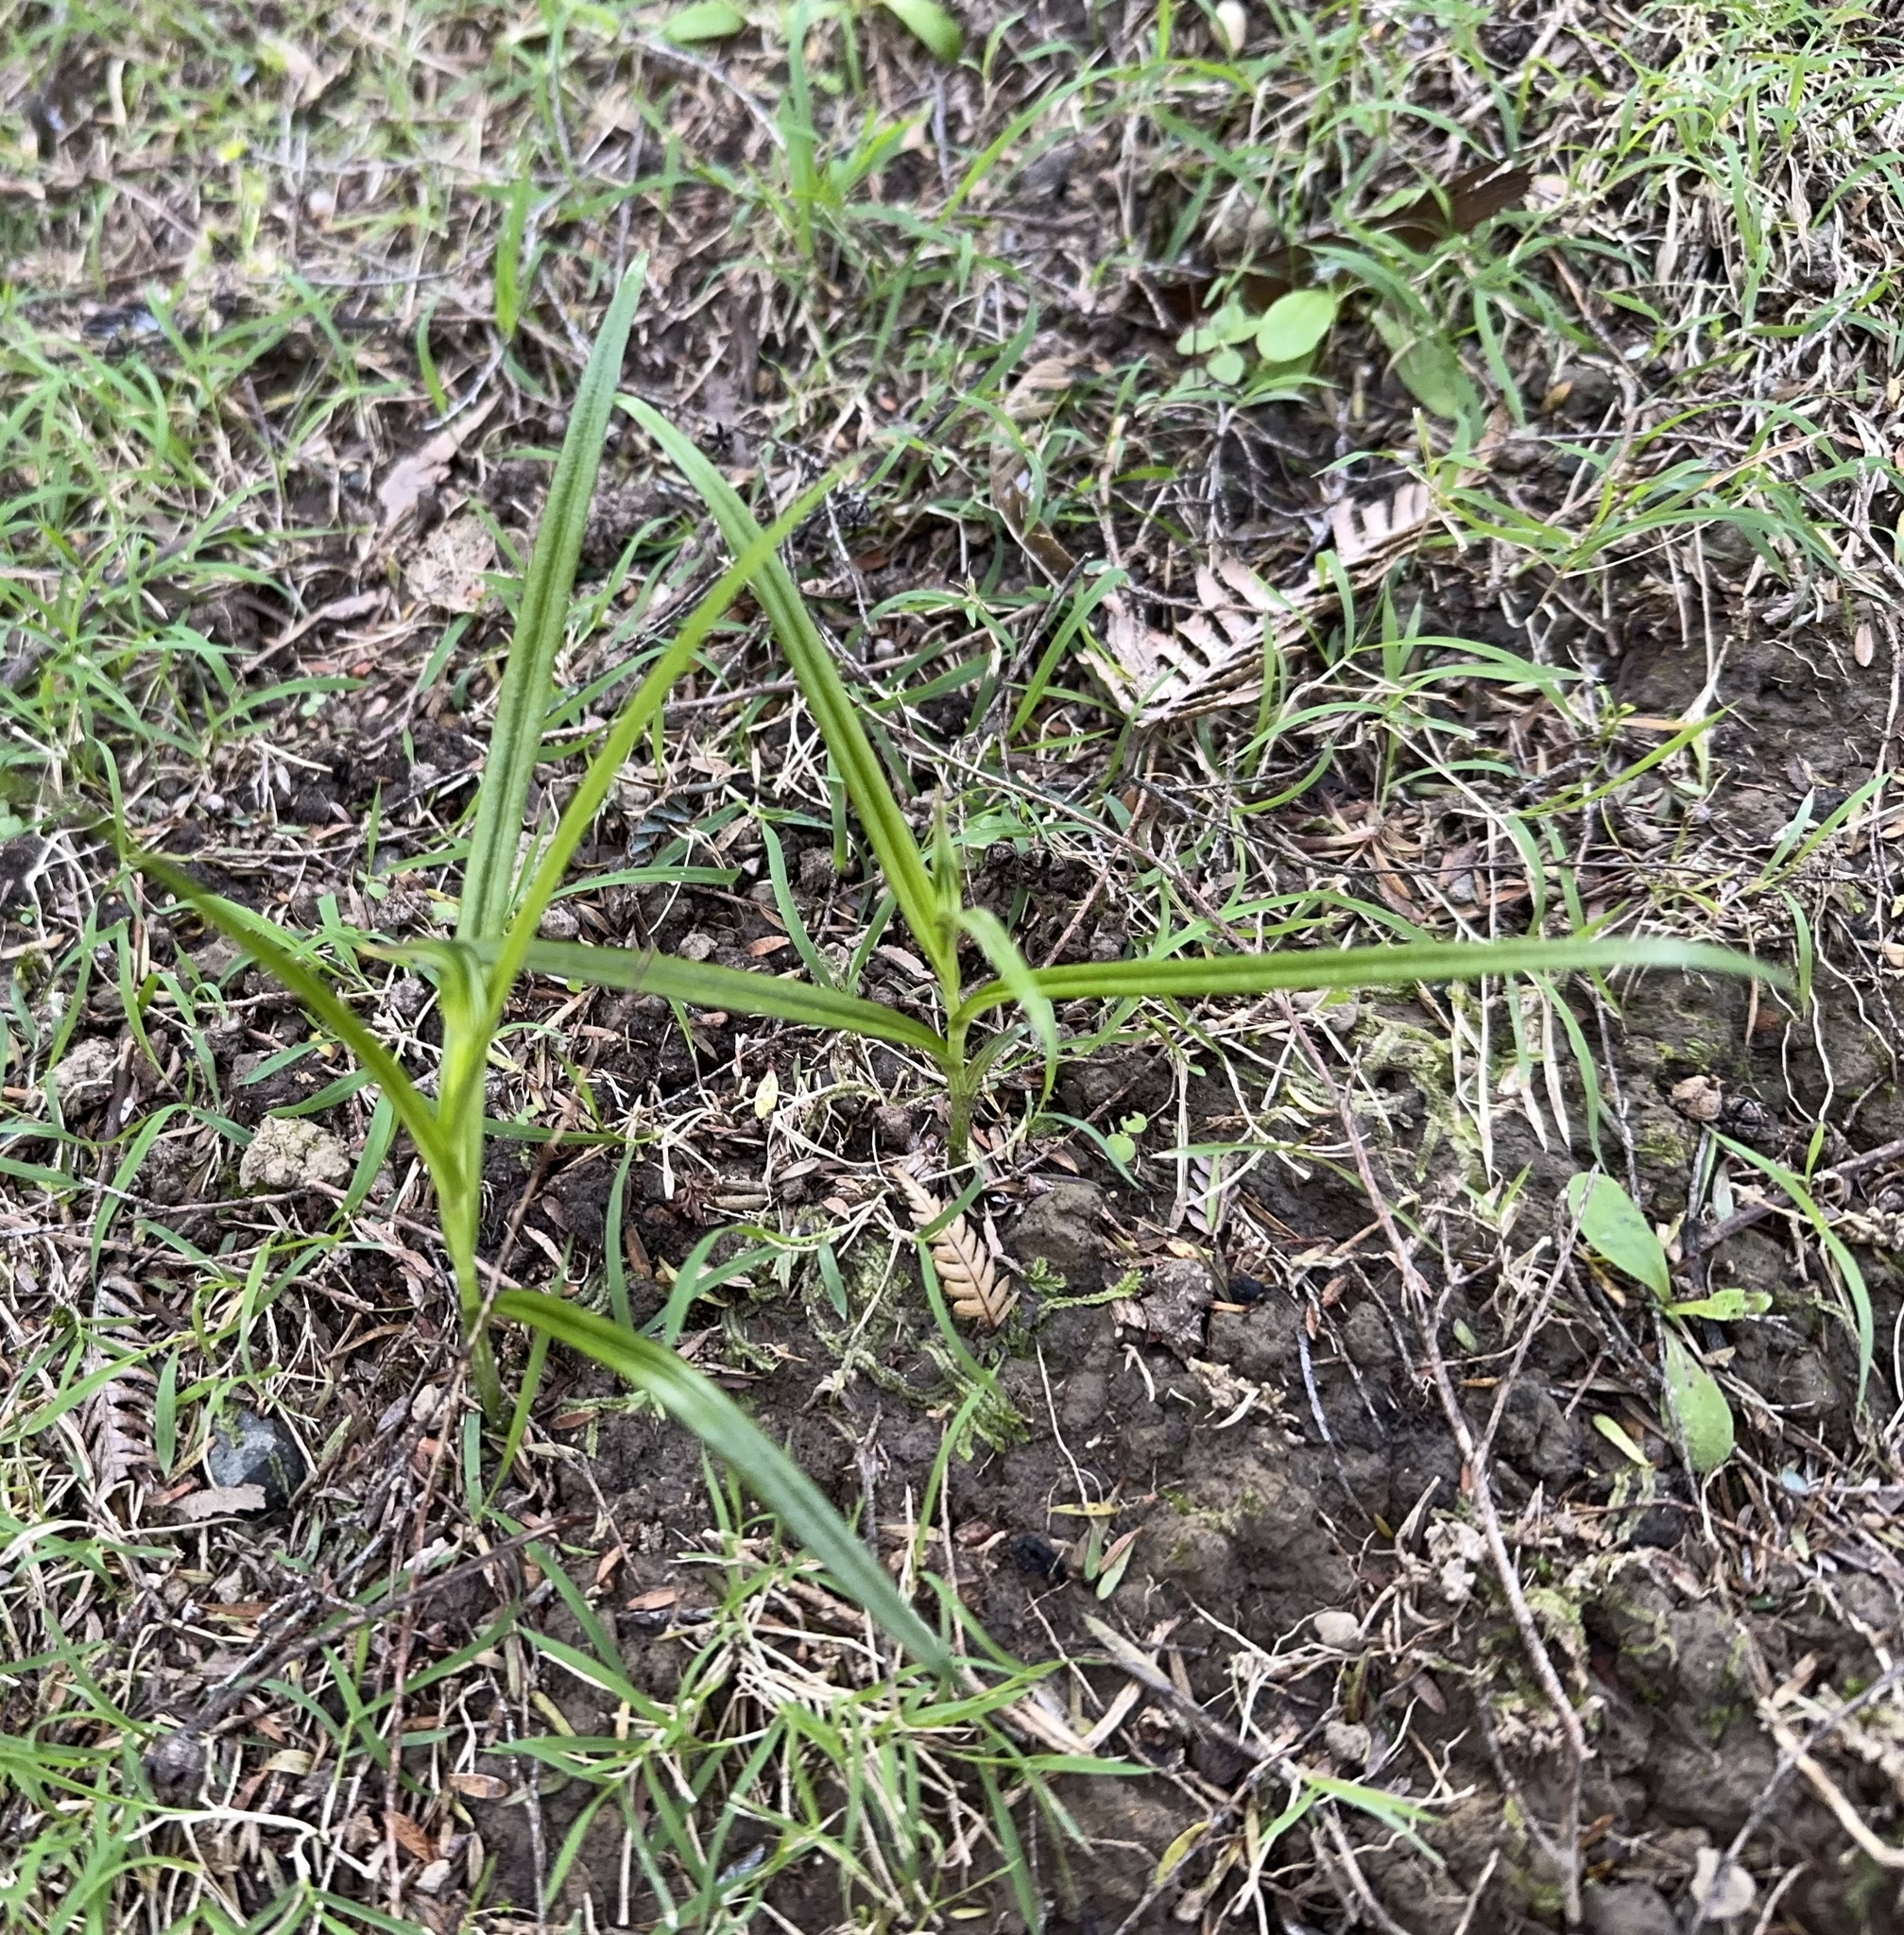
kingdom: Plantae
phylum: Tracheophyta
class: Liliopsida
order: Asparagales
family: Orchidaceae
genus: Pterostylis
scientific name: Pterostylis graminea
